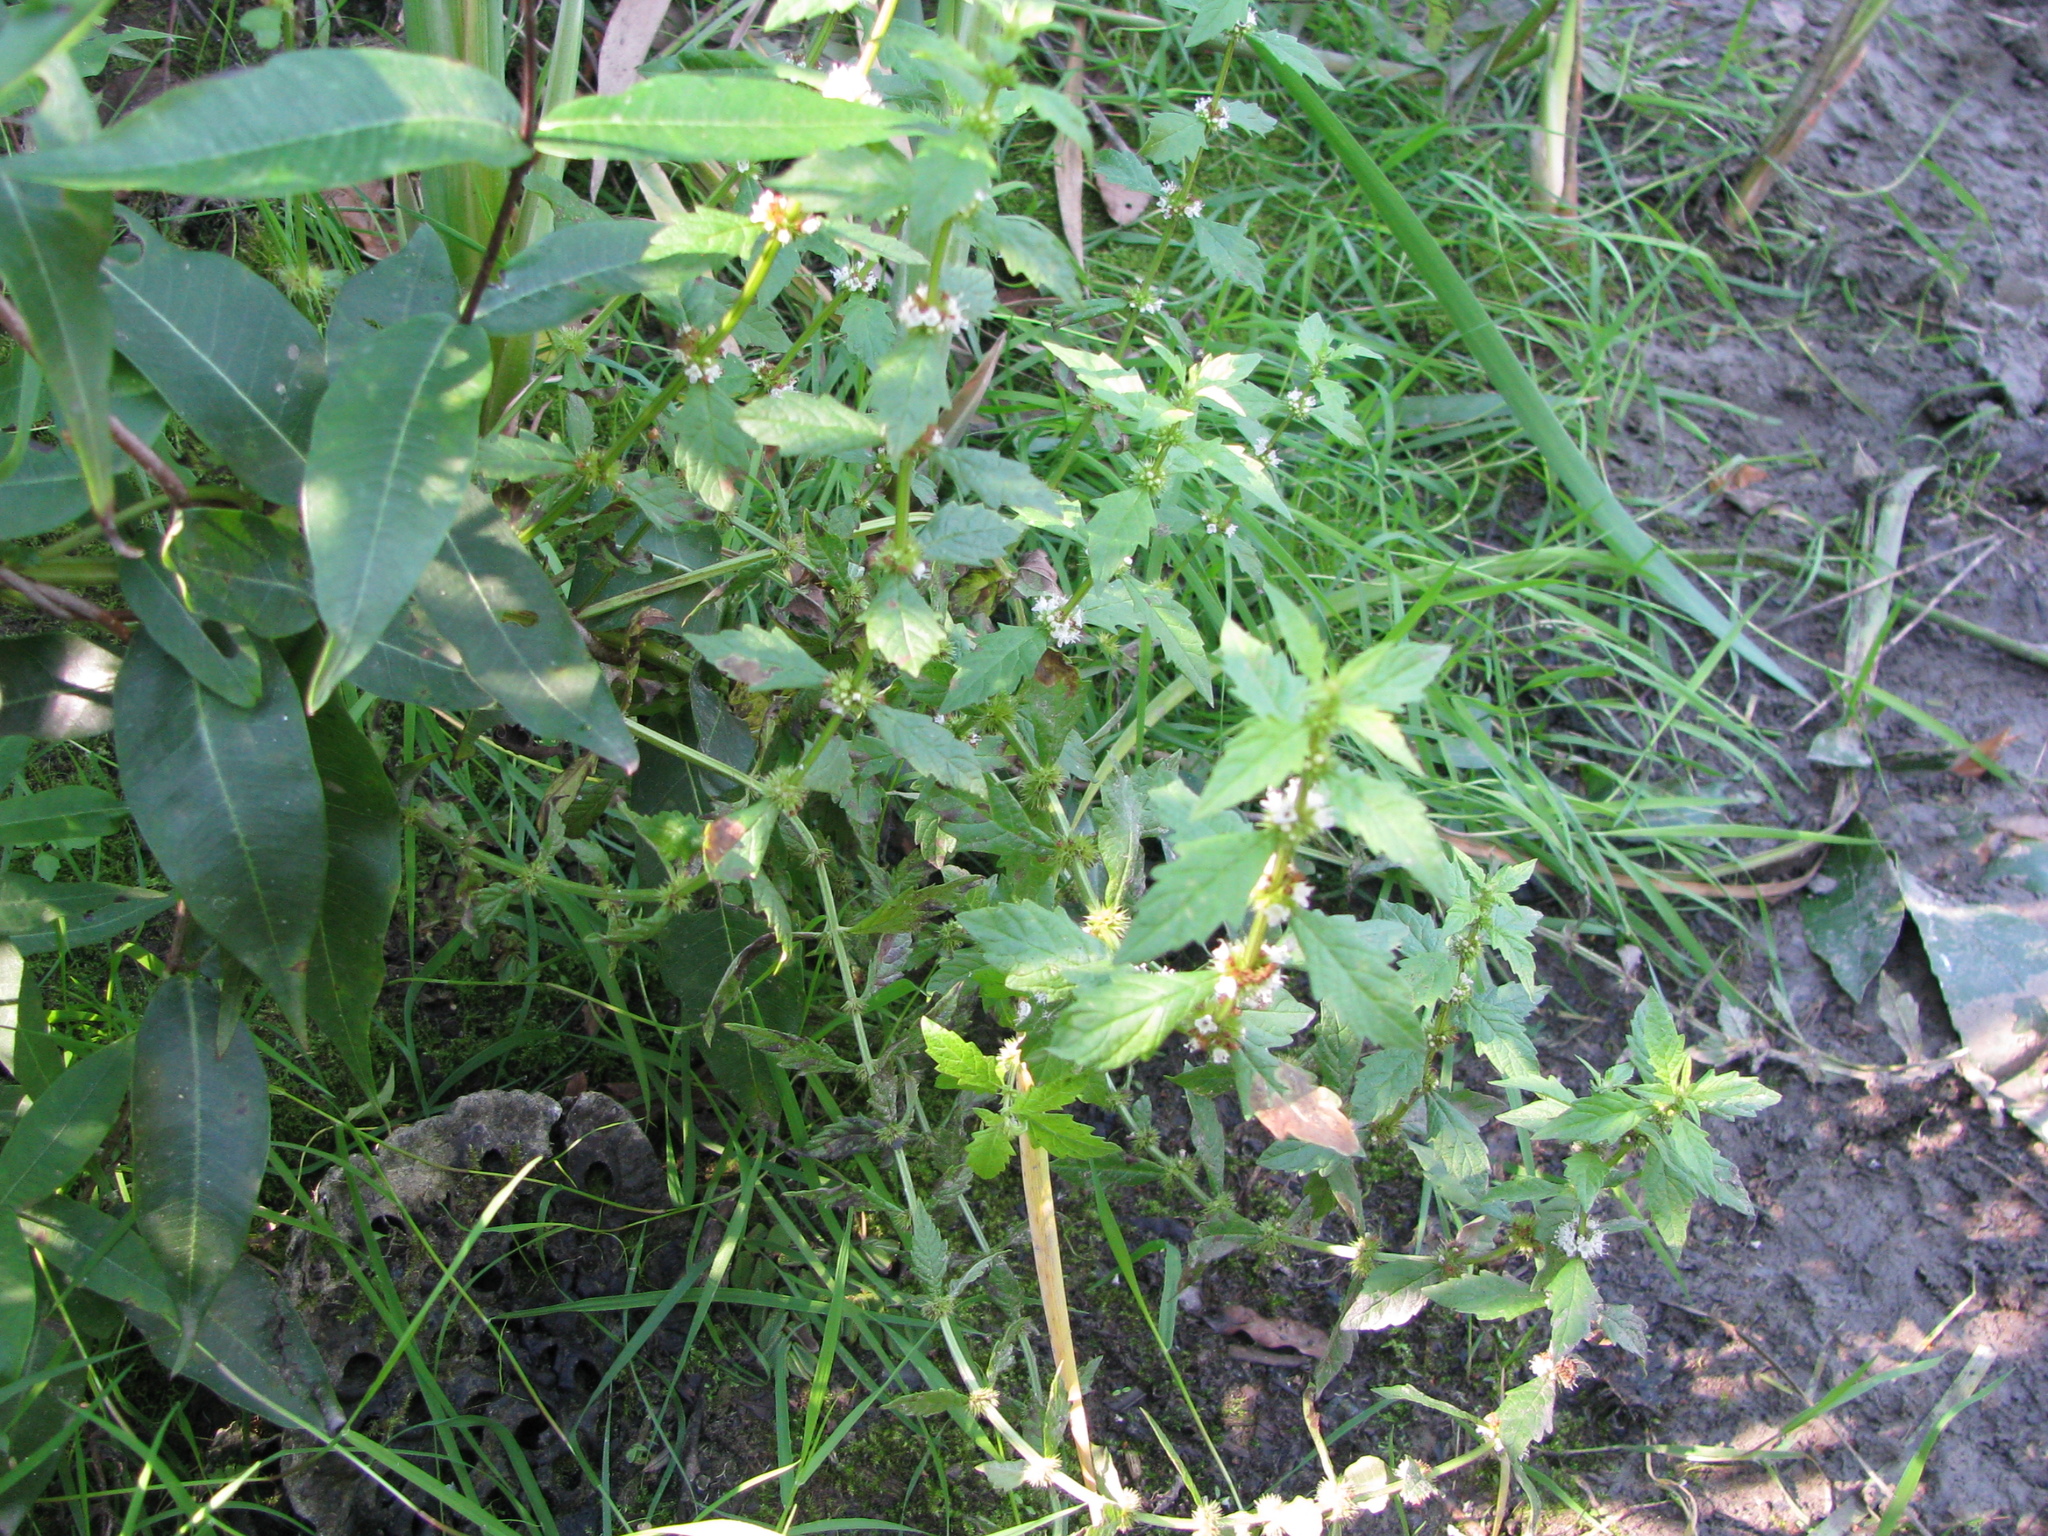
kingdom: Plantae
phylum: Tracheophyta
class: Magnoliopsida
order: Lamiales
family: Lamiaceae
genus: Lycopus
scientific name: Lycopus europaeus
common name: European bugleweed
